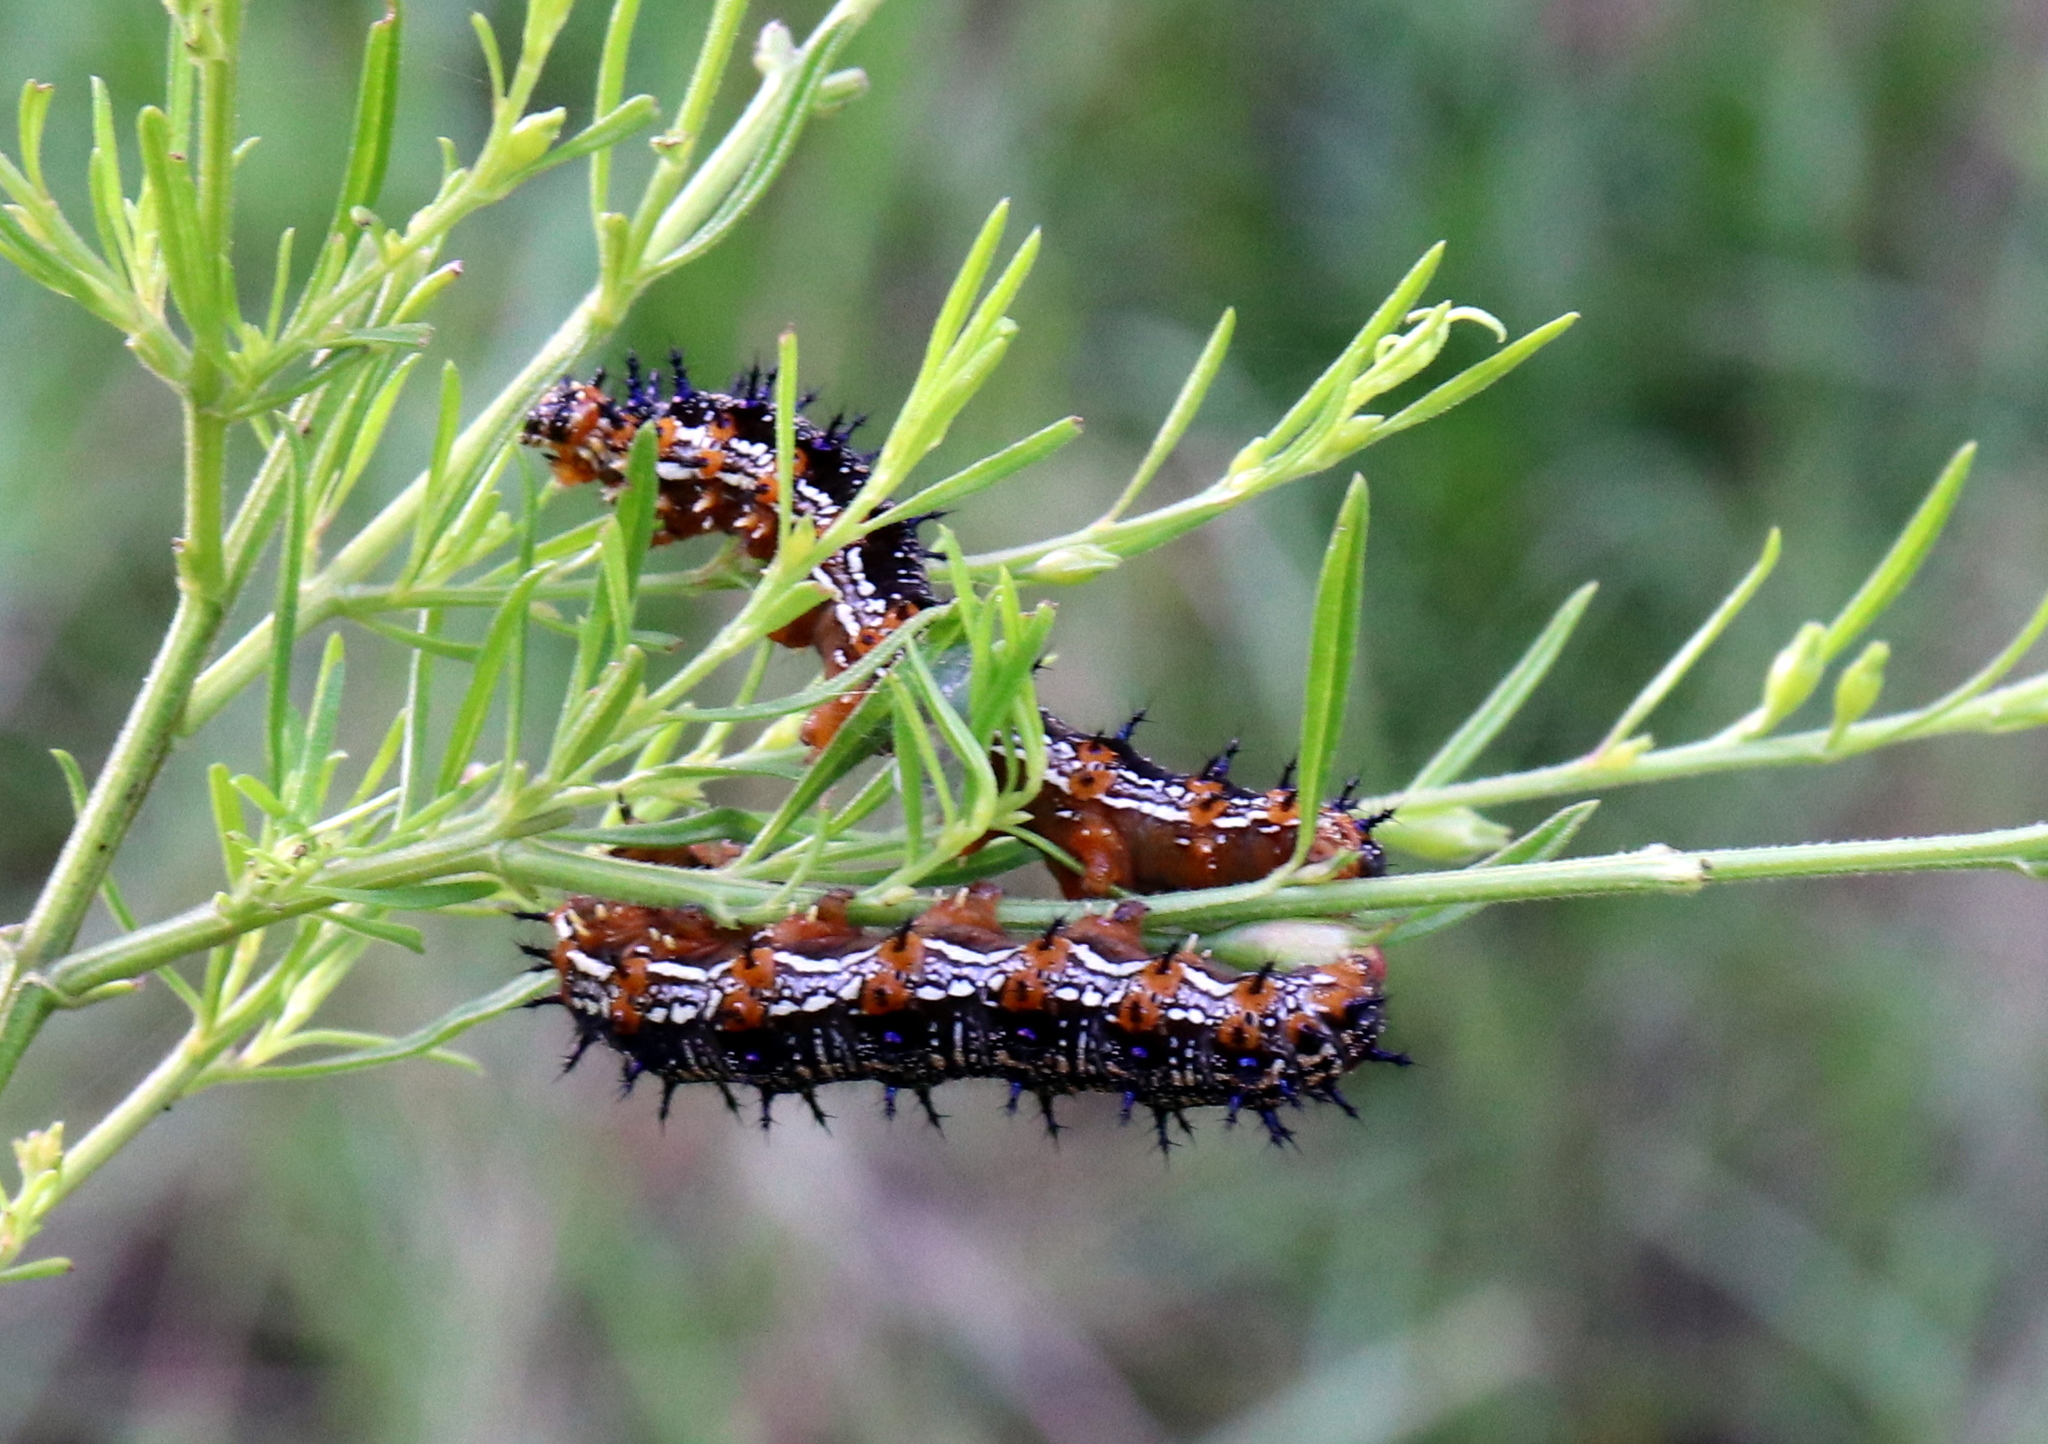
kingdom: Animalia
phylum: Arthropoda
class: Insecta
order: Lepidoptera
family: Nymphalidae
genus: Junonia
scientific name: Junonia coenia
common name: Common buckeye
